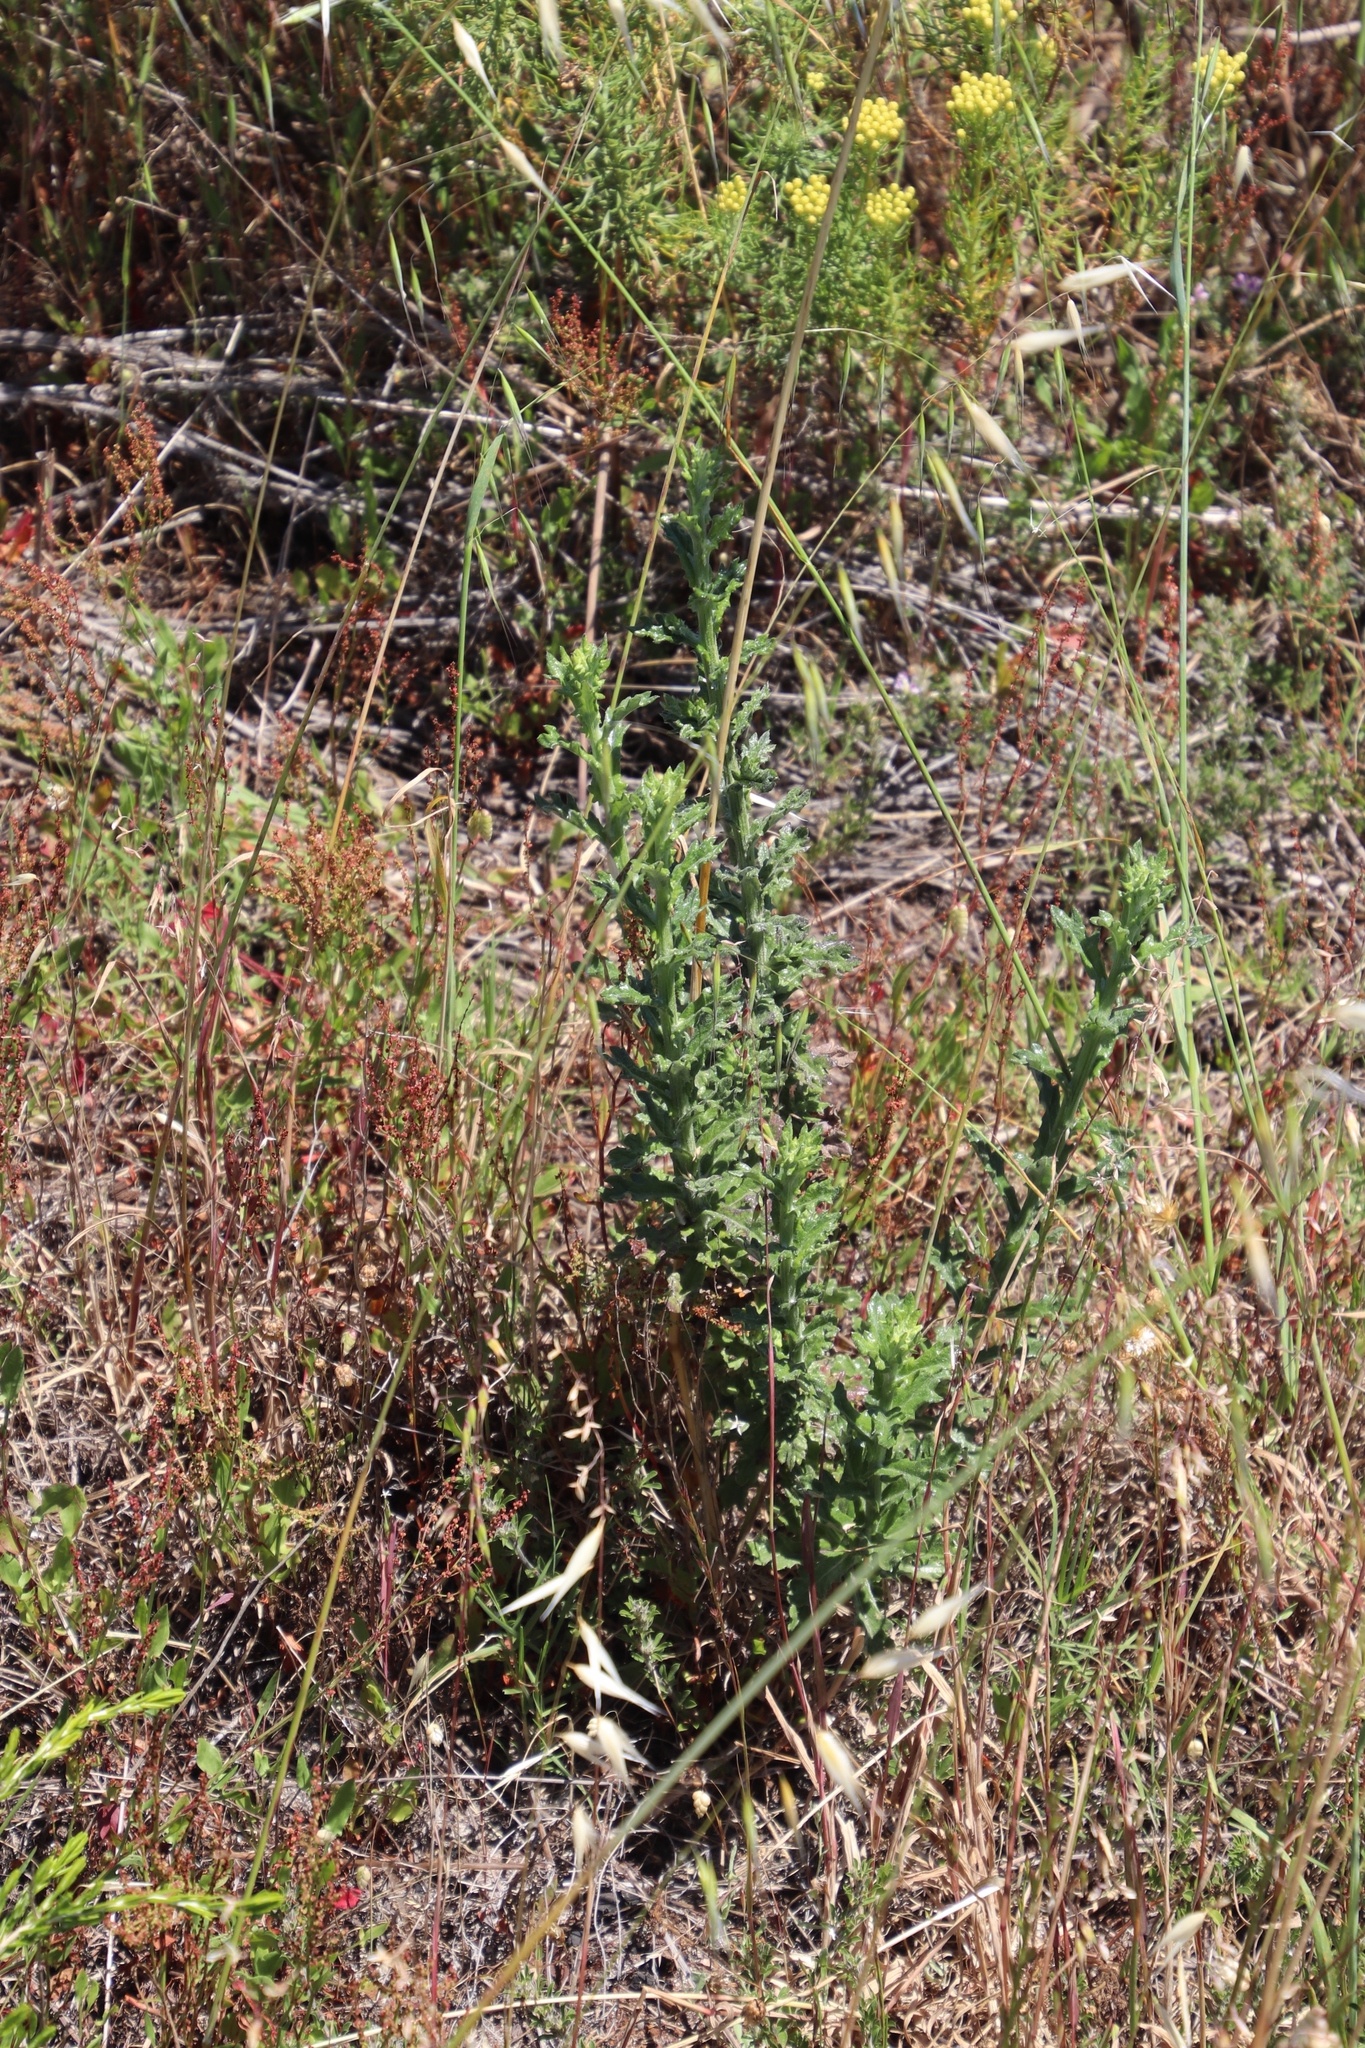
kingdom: Plantae
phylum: Tracheophyta
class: Magnoliopsida
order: Asterales
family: Asteraceae
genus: Senecio
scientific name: Senecio pubigerus
